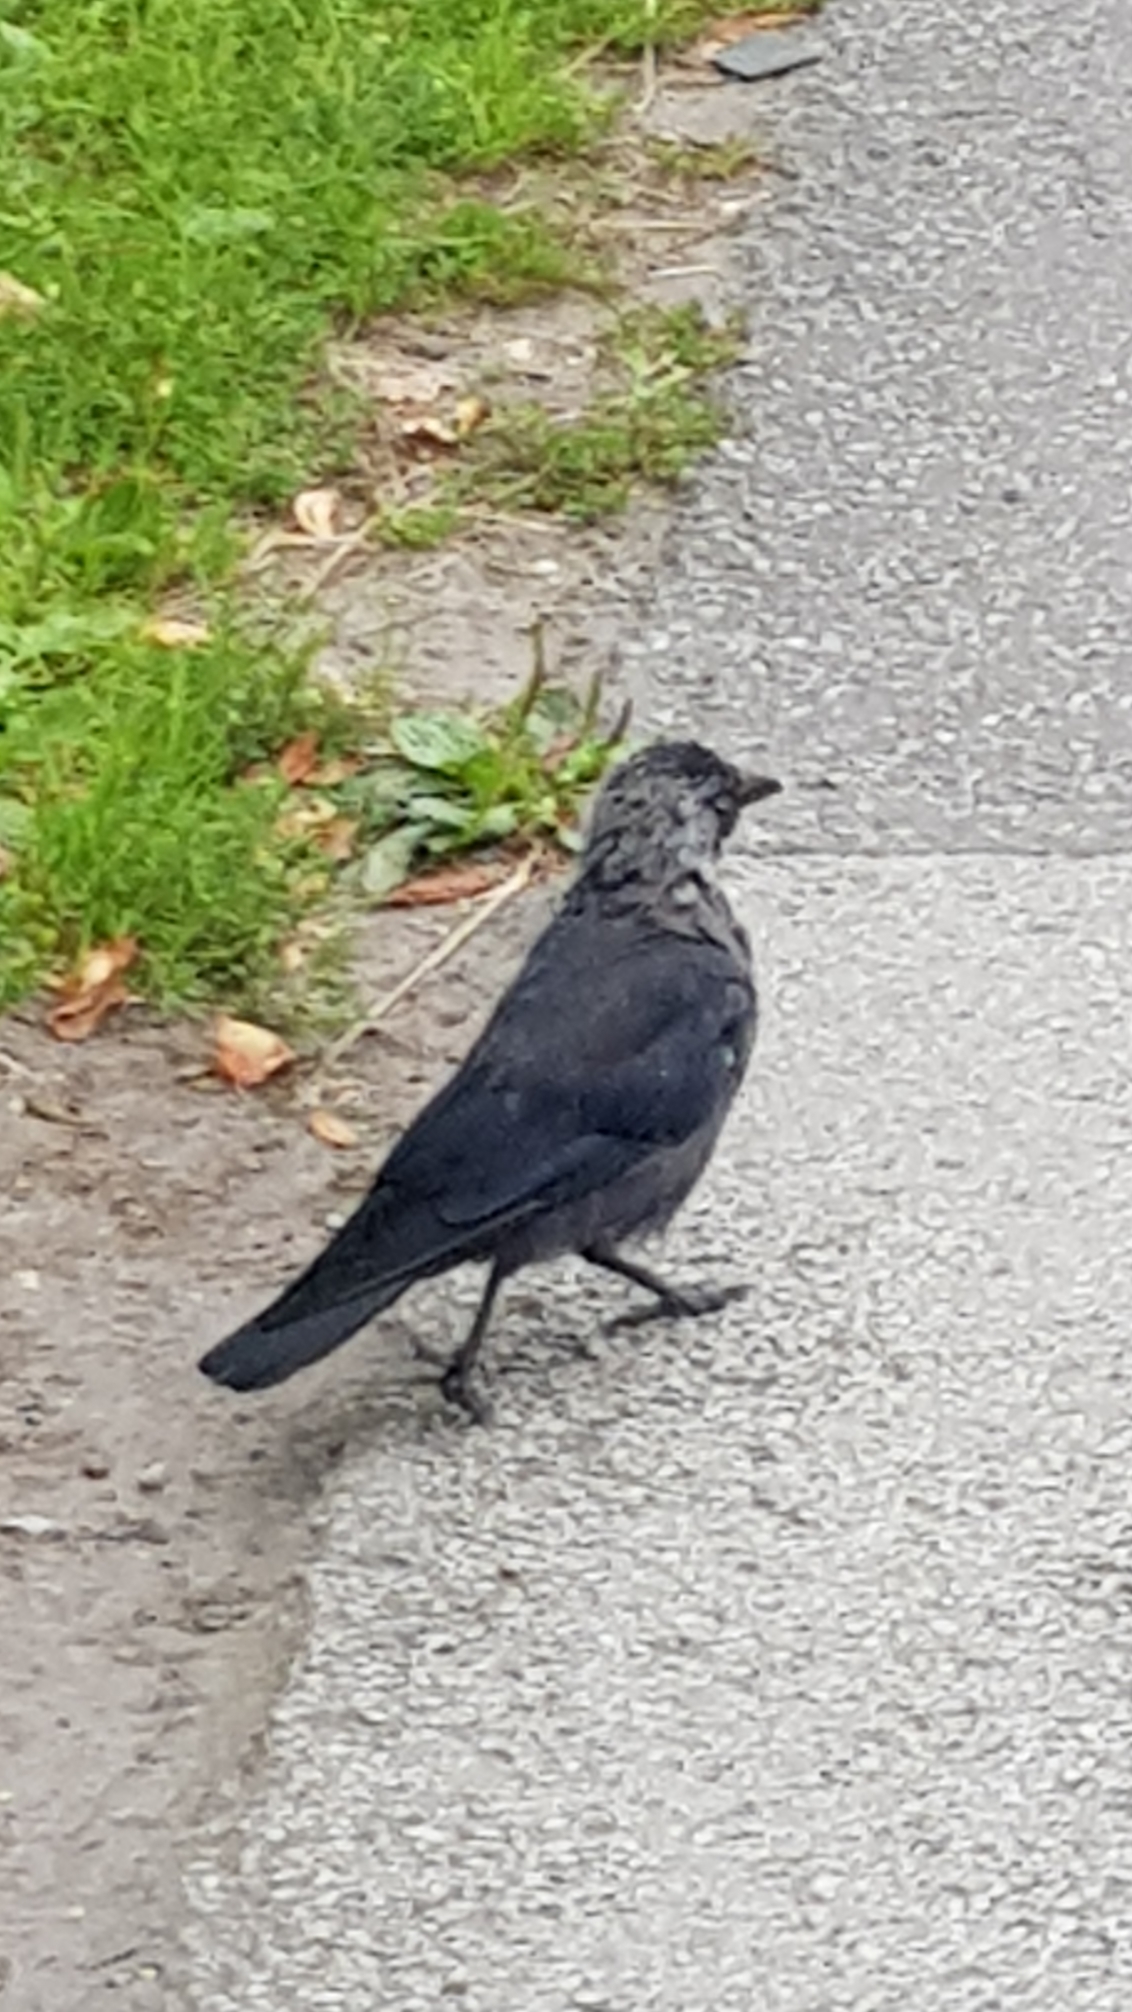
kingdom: Animalia
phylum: Chordata
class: Aves
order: Passeriformes
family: Corvidae
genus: Coloeus
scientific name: Coloeus monedula
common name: Western jackdaw
